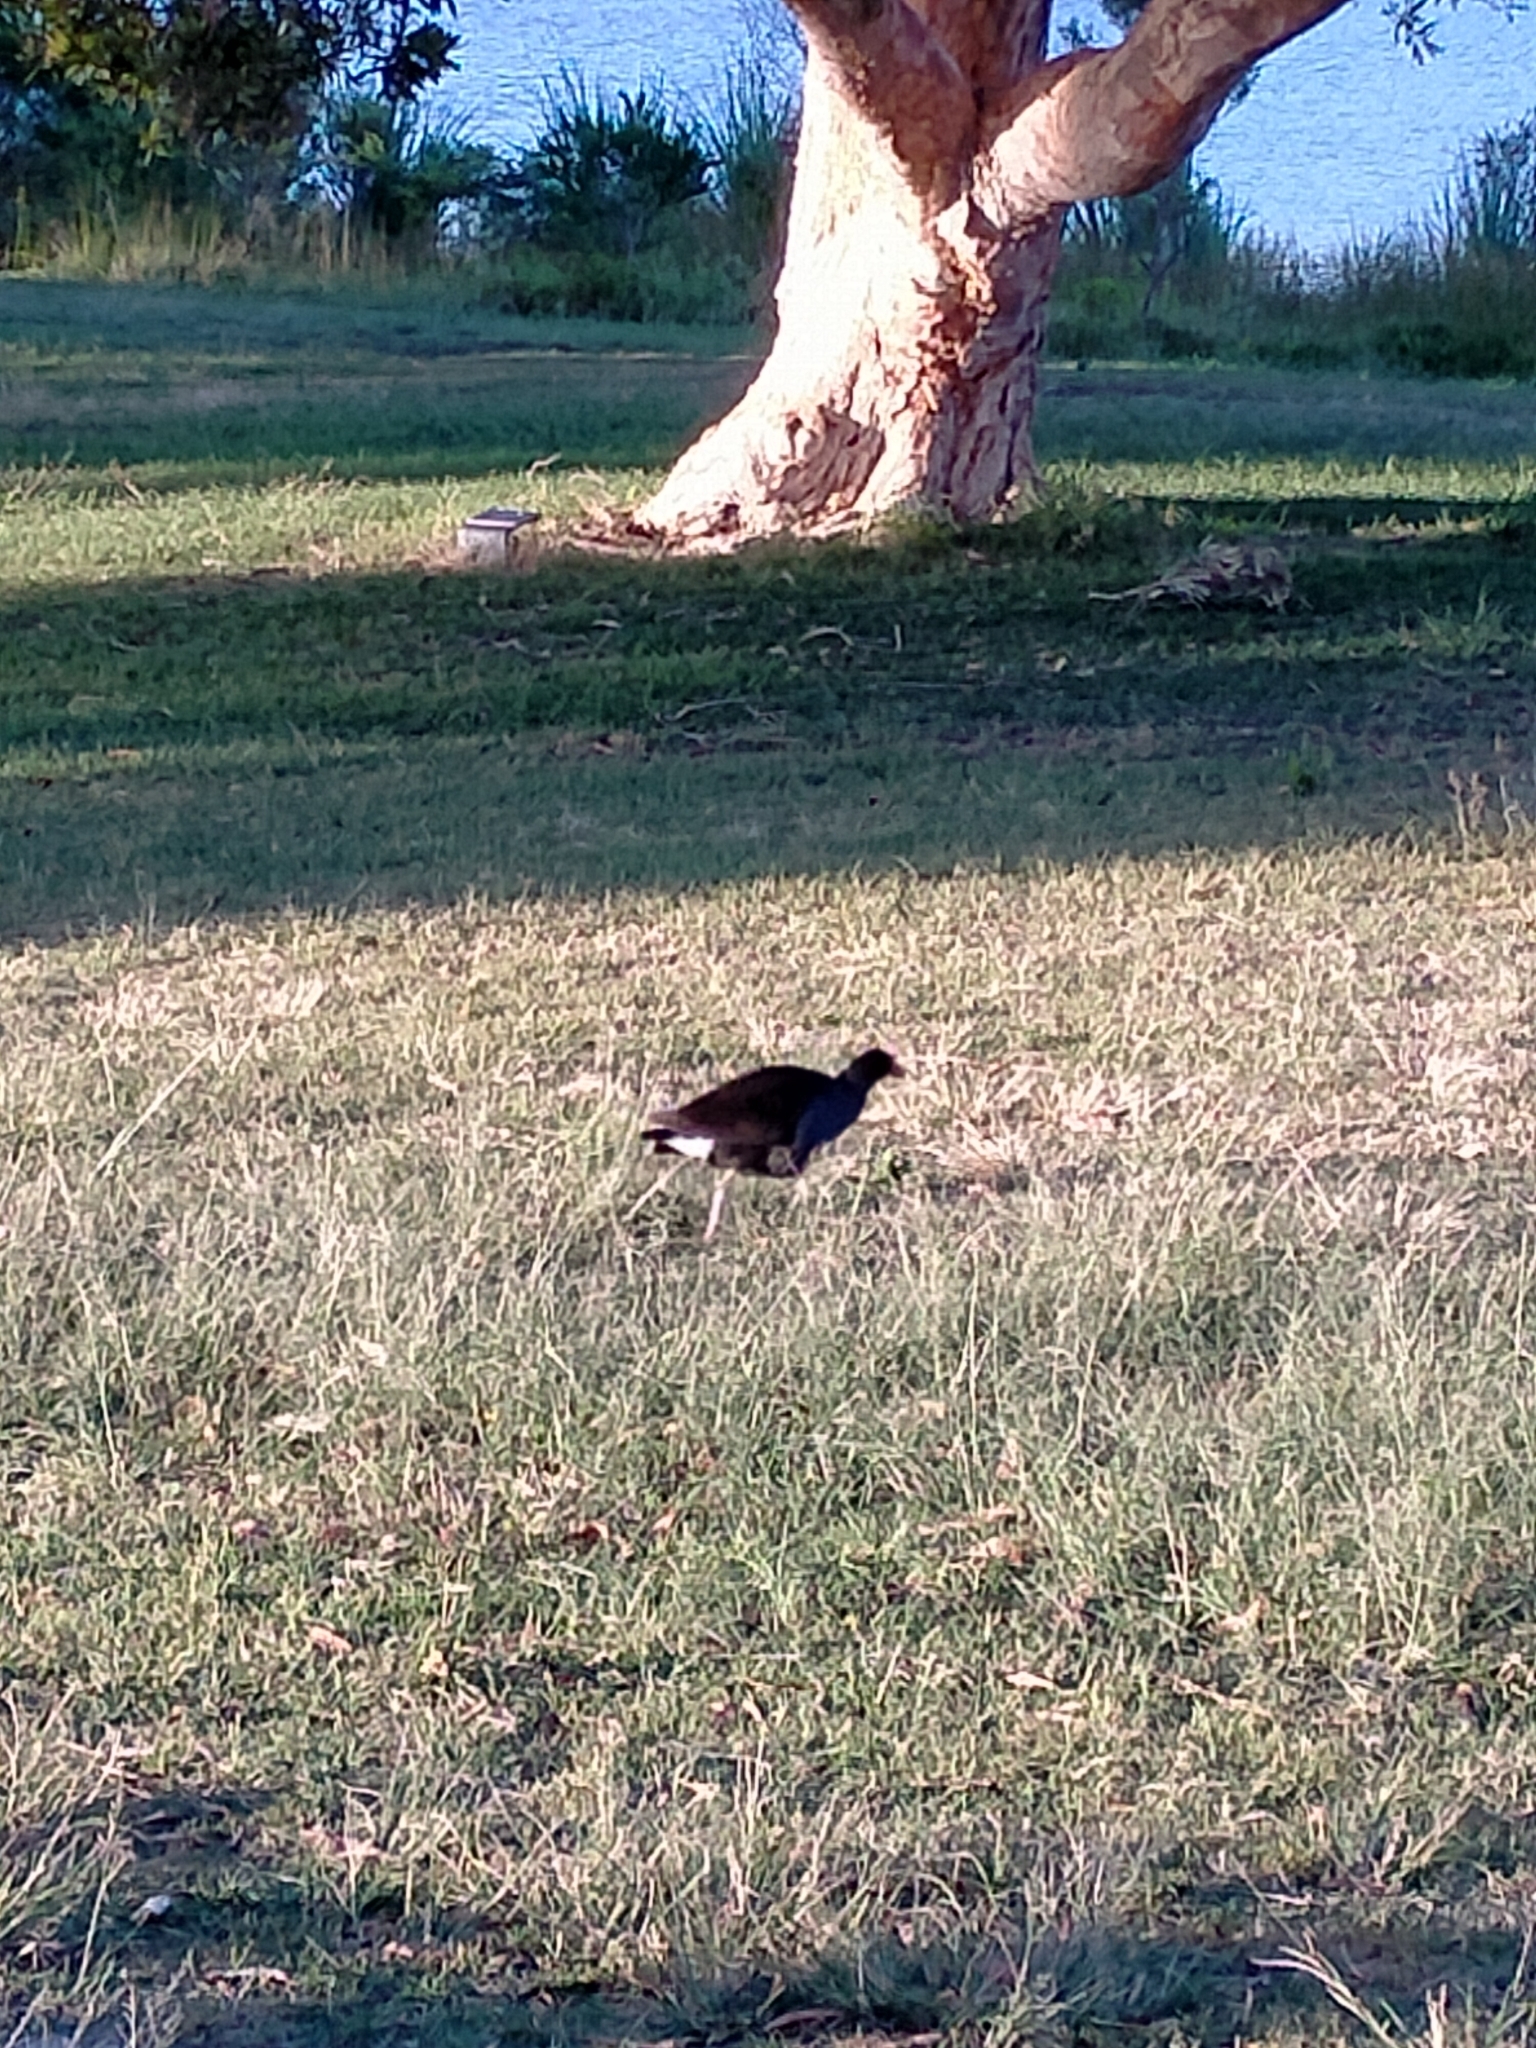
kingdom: Animalia
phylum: Chordata
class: Aves
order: Gruiformes
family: Rallidae
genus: Porphyrio
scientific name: Porphyrio melanotus
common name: Australasian swamphen
